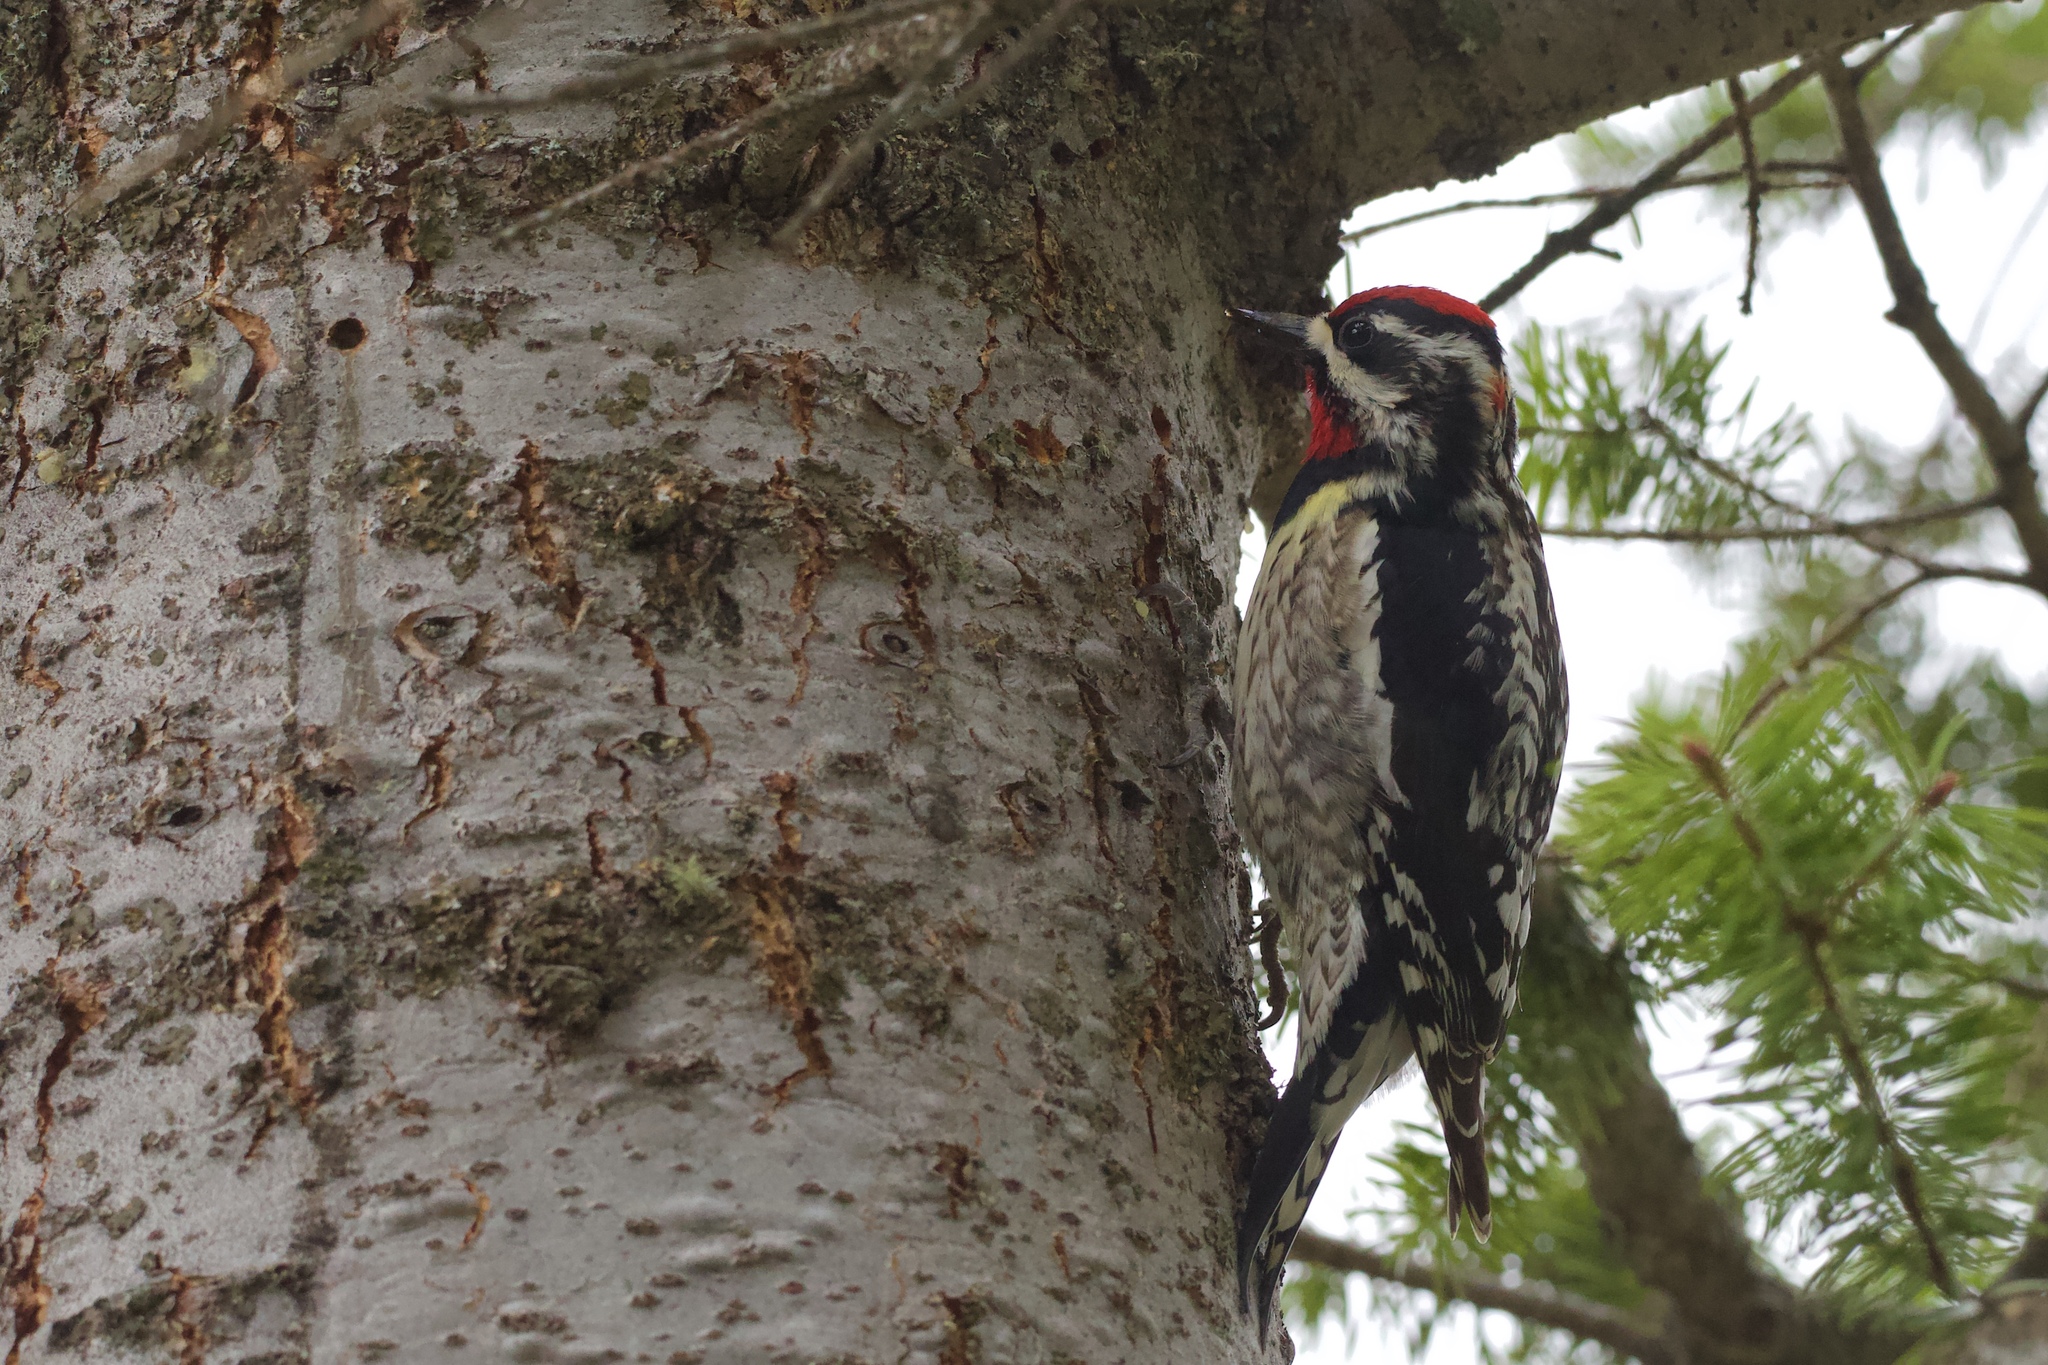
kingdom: Animalia
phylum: Chordata
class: Aves
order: Piciformes
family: Picidae
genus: Sphyrapicus
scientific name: Sphyrapicus nuchalis
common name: Red-naped sapsucker
